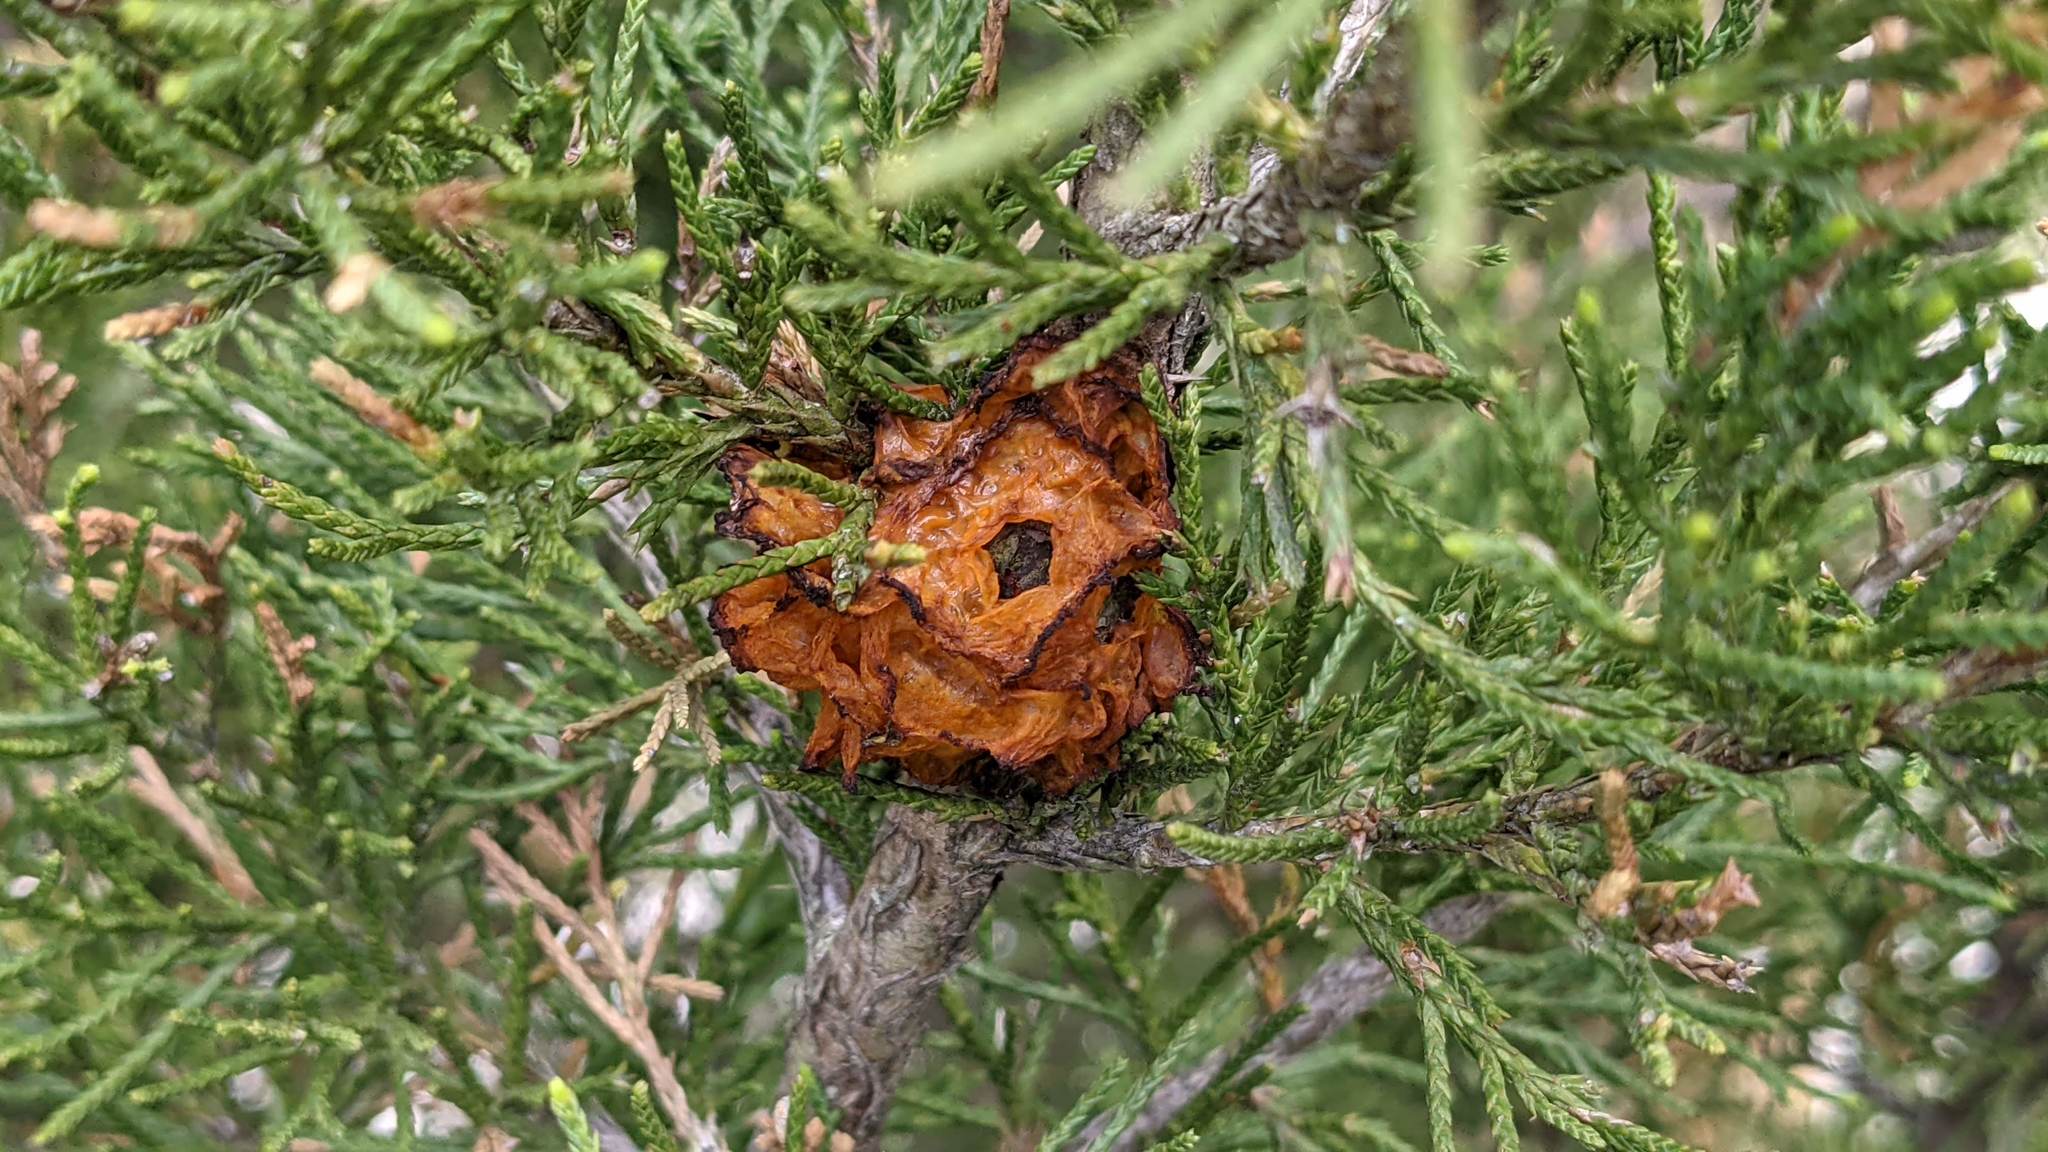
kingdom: Fungi
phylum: Basidiomycota
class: Pucciniomycetes
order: Pucciniales
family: Gymnosporangiaceae
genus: Gymnosporangium
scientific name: Gymnosporangium juniperi-virginianae
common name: Juniper-apple rust
